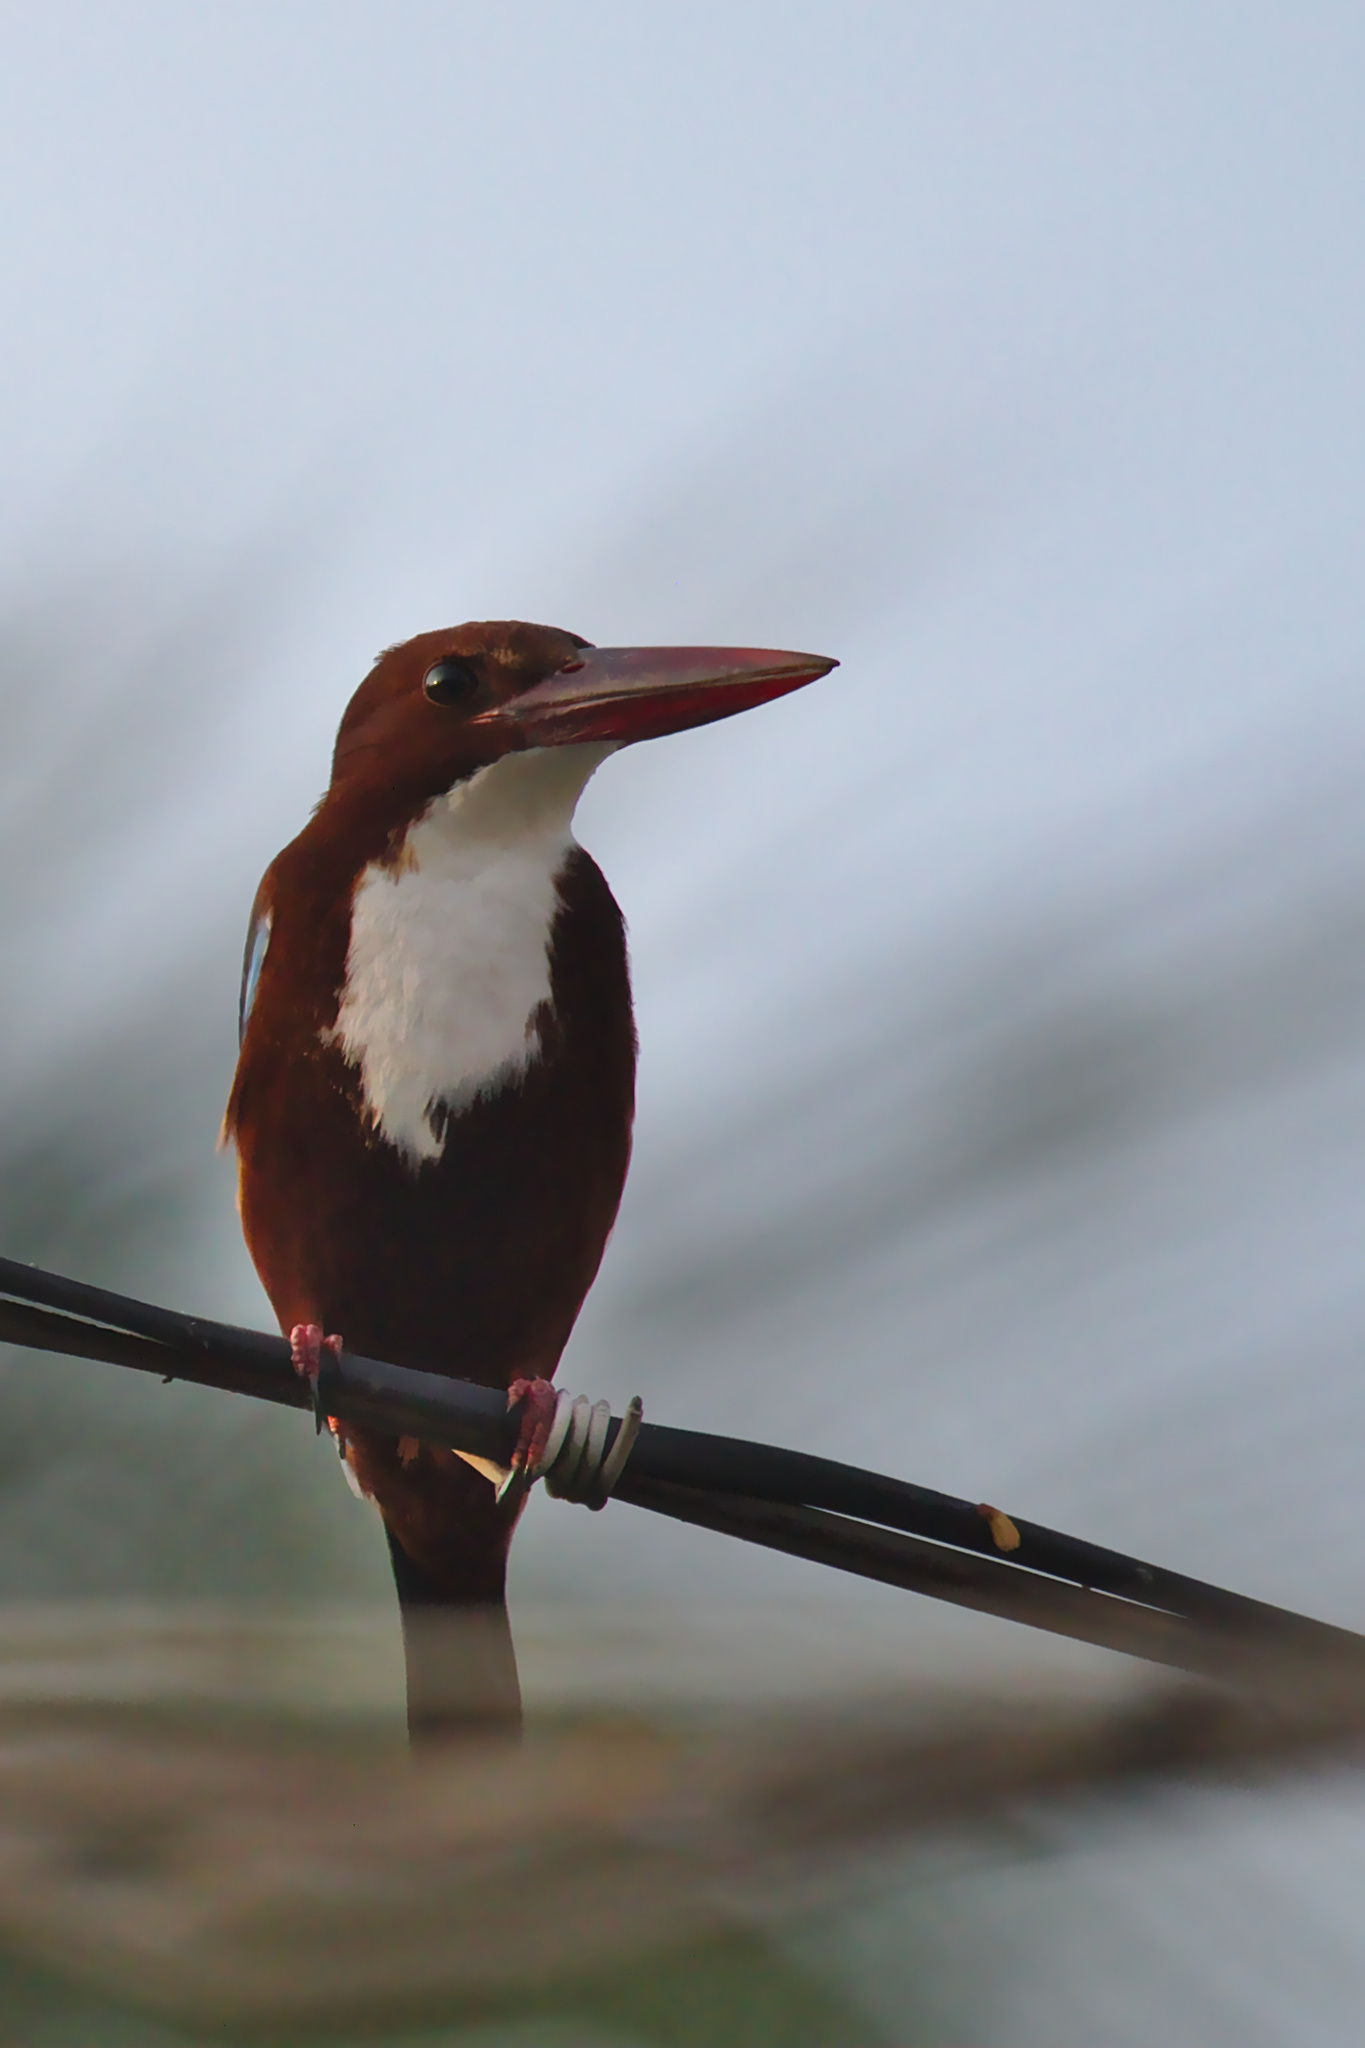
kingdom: Animalia
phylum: Chordata
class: Aves
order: Coraciiformes
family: Alcedinidae
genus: Halcyon
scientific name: Halcyon smyrnensis
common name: White-throated kingfisher
